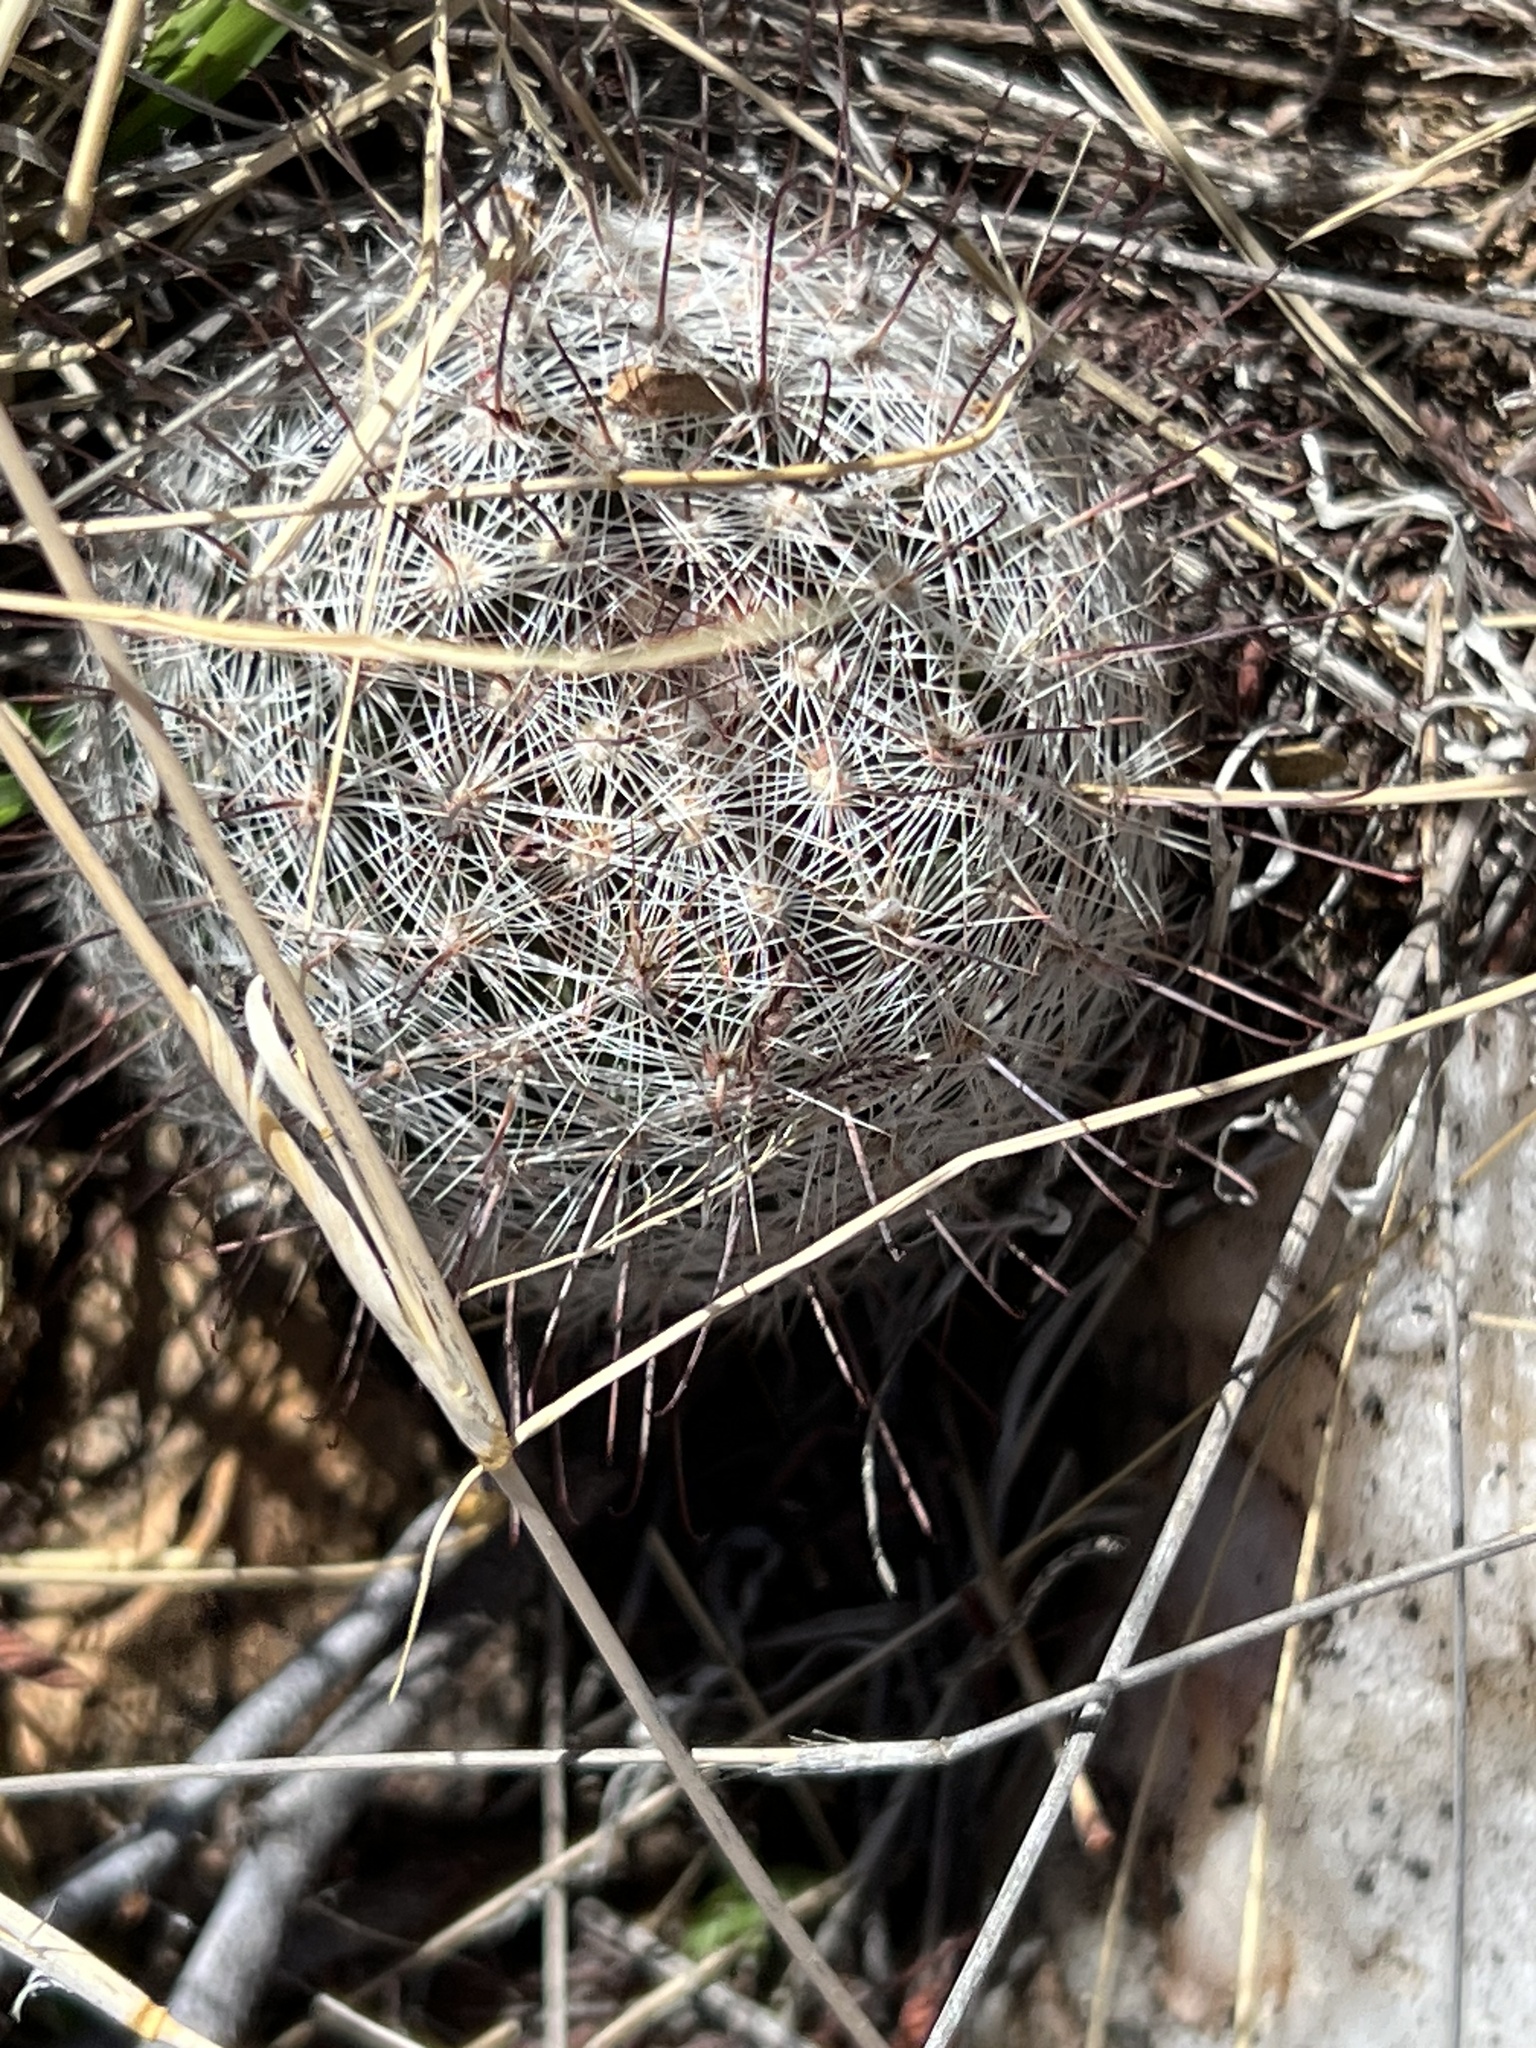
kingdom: Plantae
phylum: Tracheophyta
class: Magnoliopsida
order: Caryophyllales
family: Cactaceae
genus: Cochemiea
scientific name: Cochemiea grahamii
